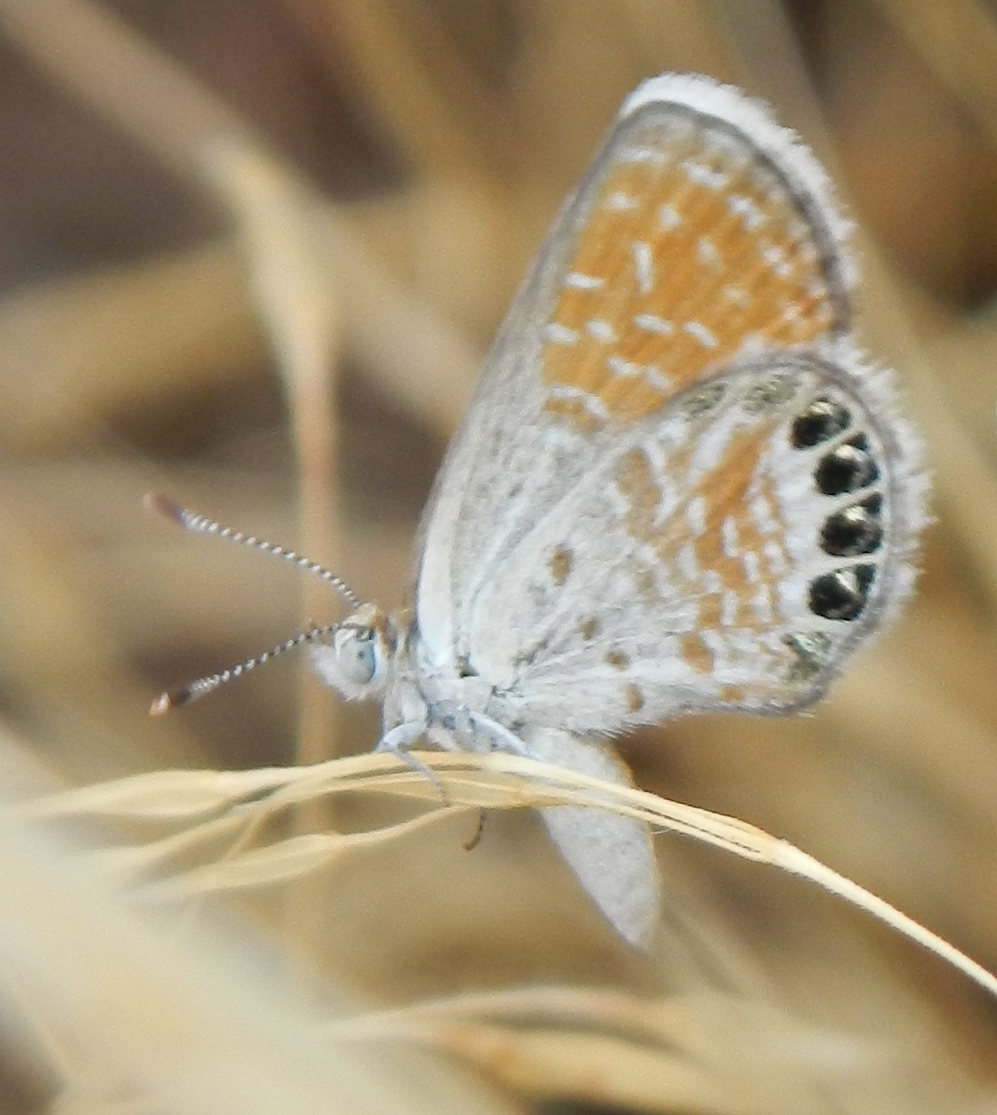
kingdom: Animalia
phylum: Arthropoda
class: Insecta
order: Lepidoptera
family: Lycaenidae
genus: Brephidium
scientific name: Brephidium exilis
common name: Pygmy blue
